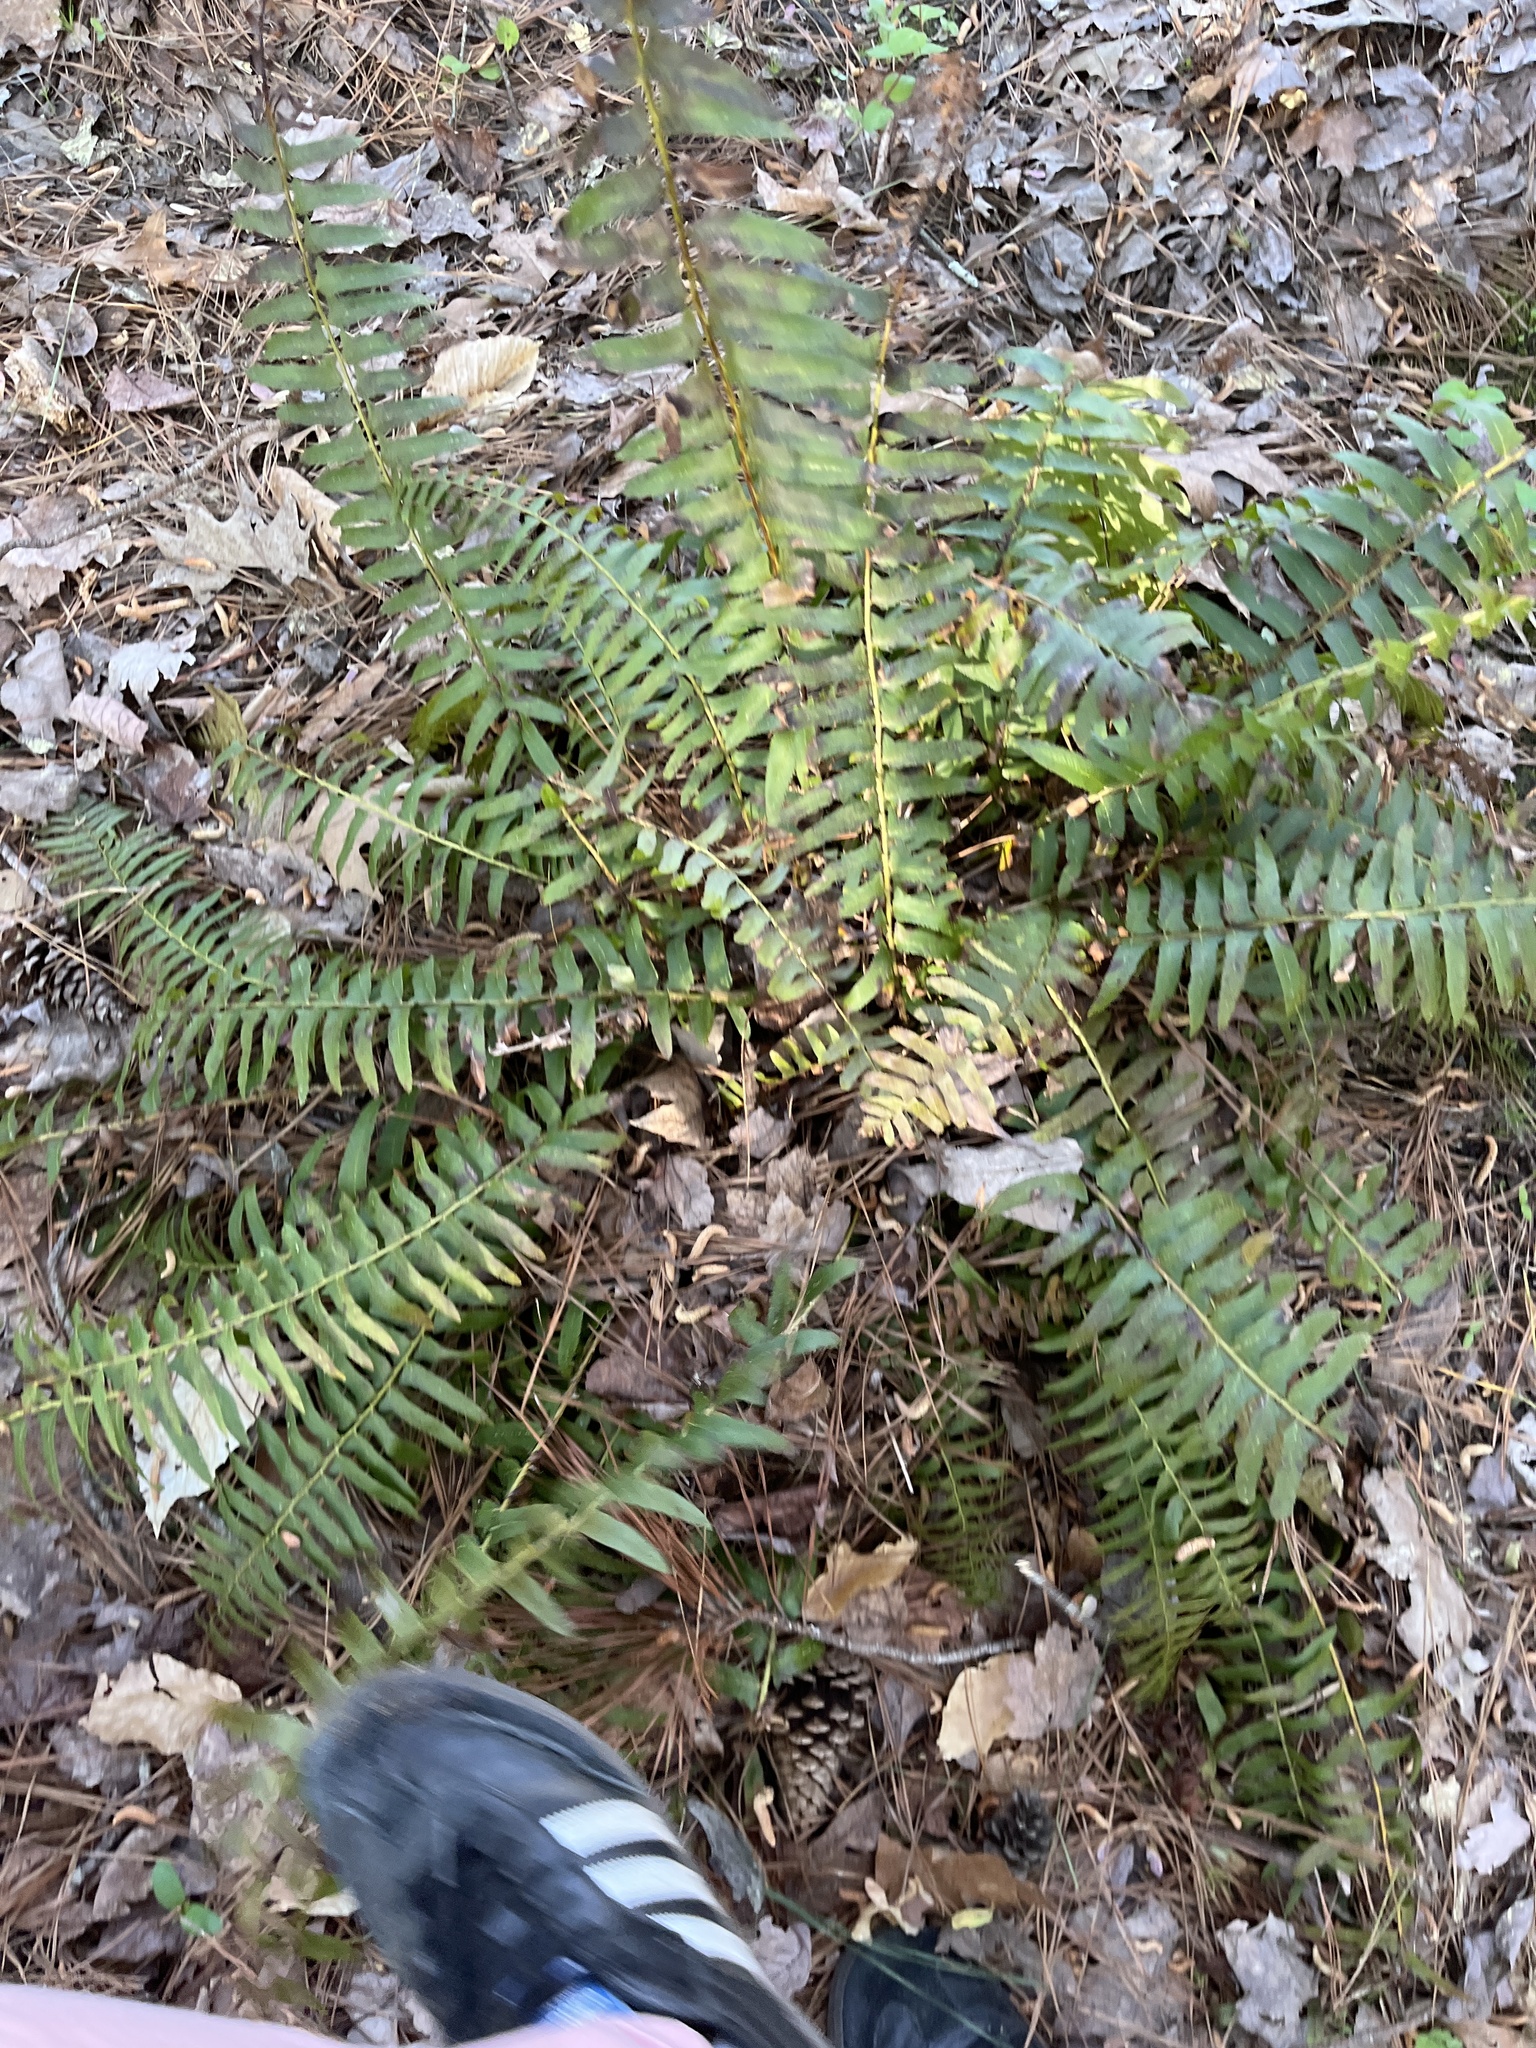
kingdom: Plantae
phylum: Tracheophyta
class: Polypodiopsida
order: Polypodiales
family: Dryopteridaceae
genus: Polystichum
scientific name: Polystichum acrostichoides
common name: Christmas fern
